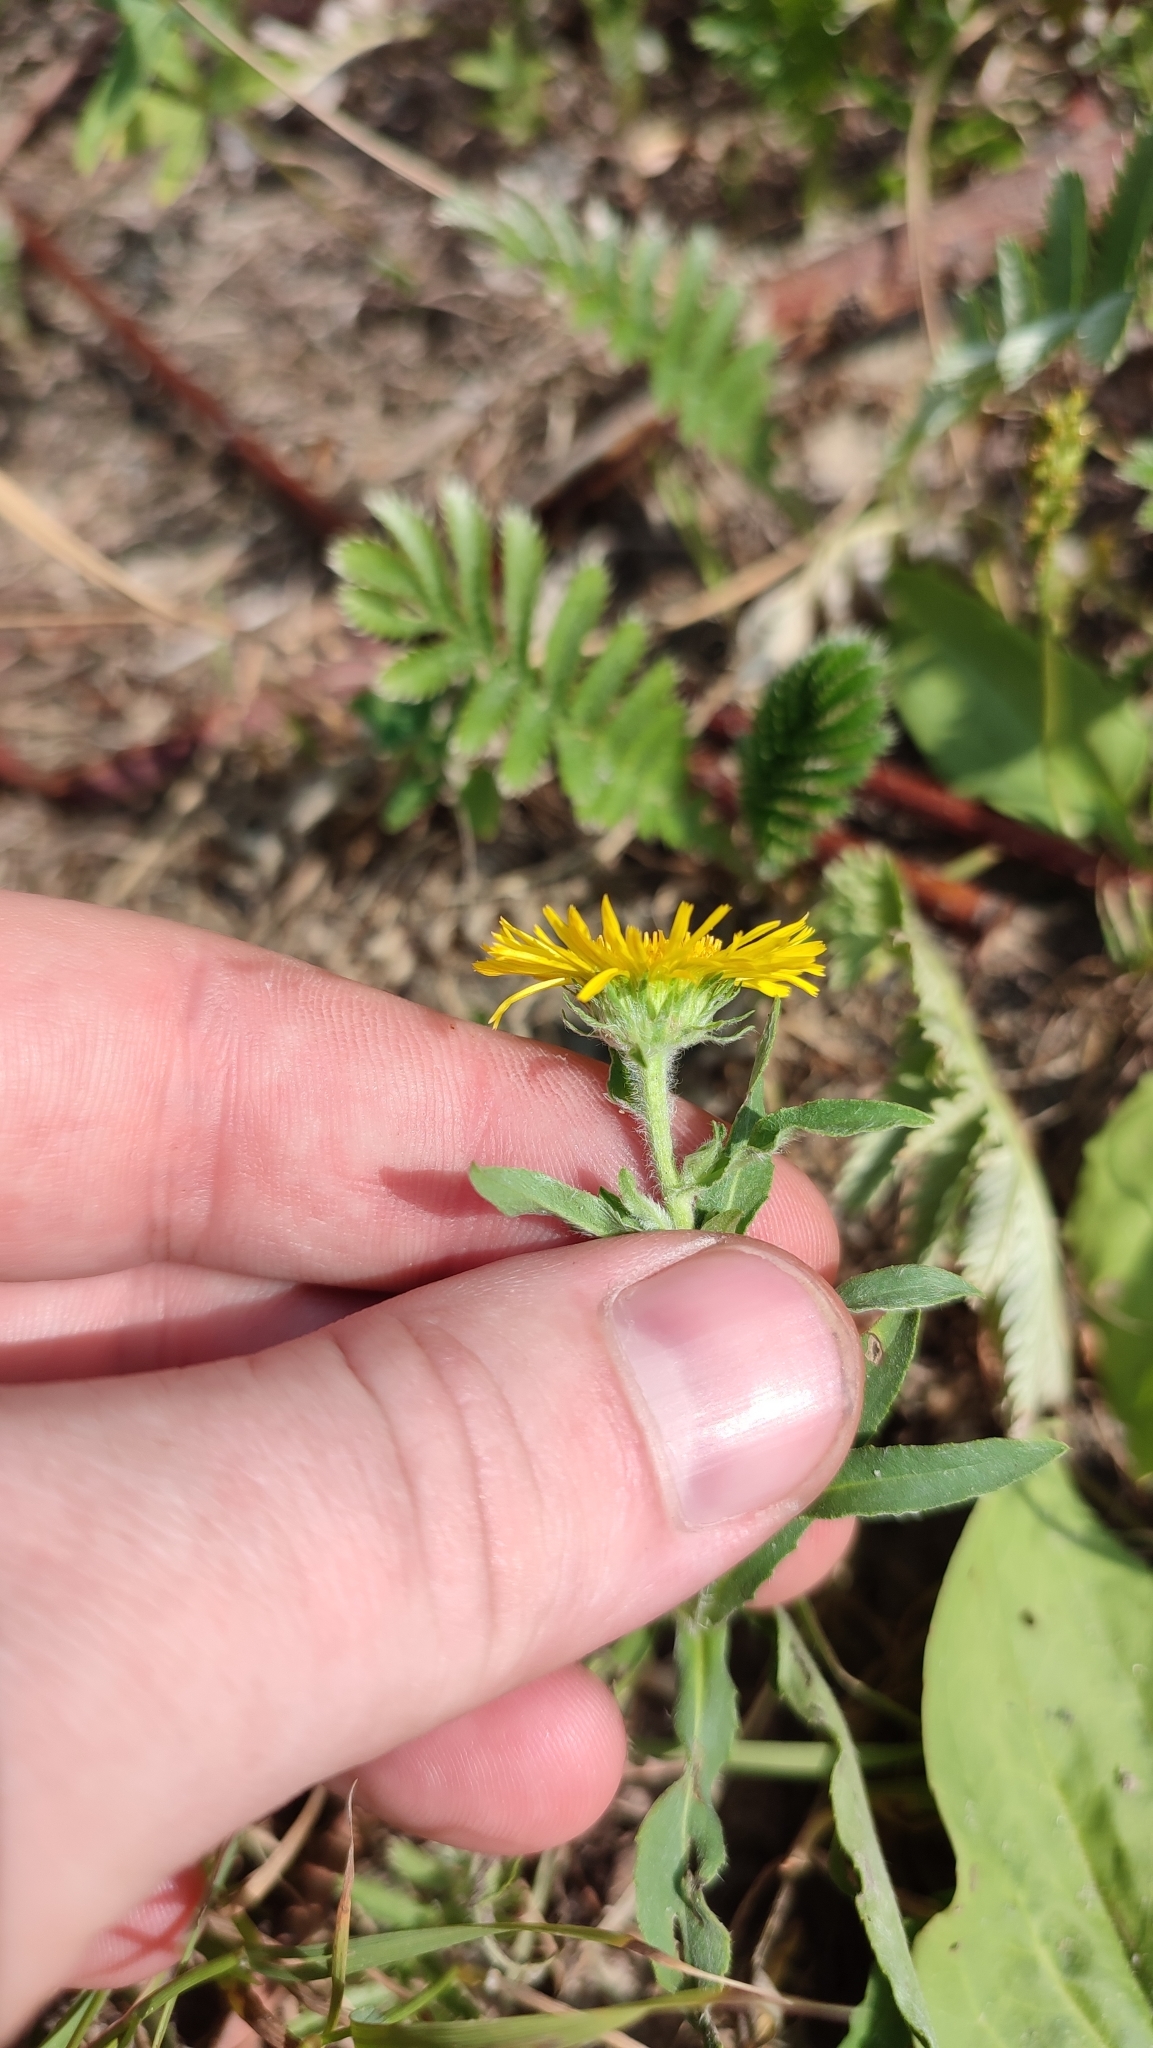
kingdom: Plantae
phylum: Tracheophyta
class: Magnoliopsida
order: Asterales
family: Asteraceae
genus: Pentanema
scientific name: Pentanema britannicum
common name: British elecampane
